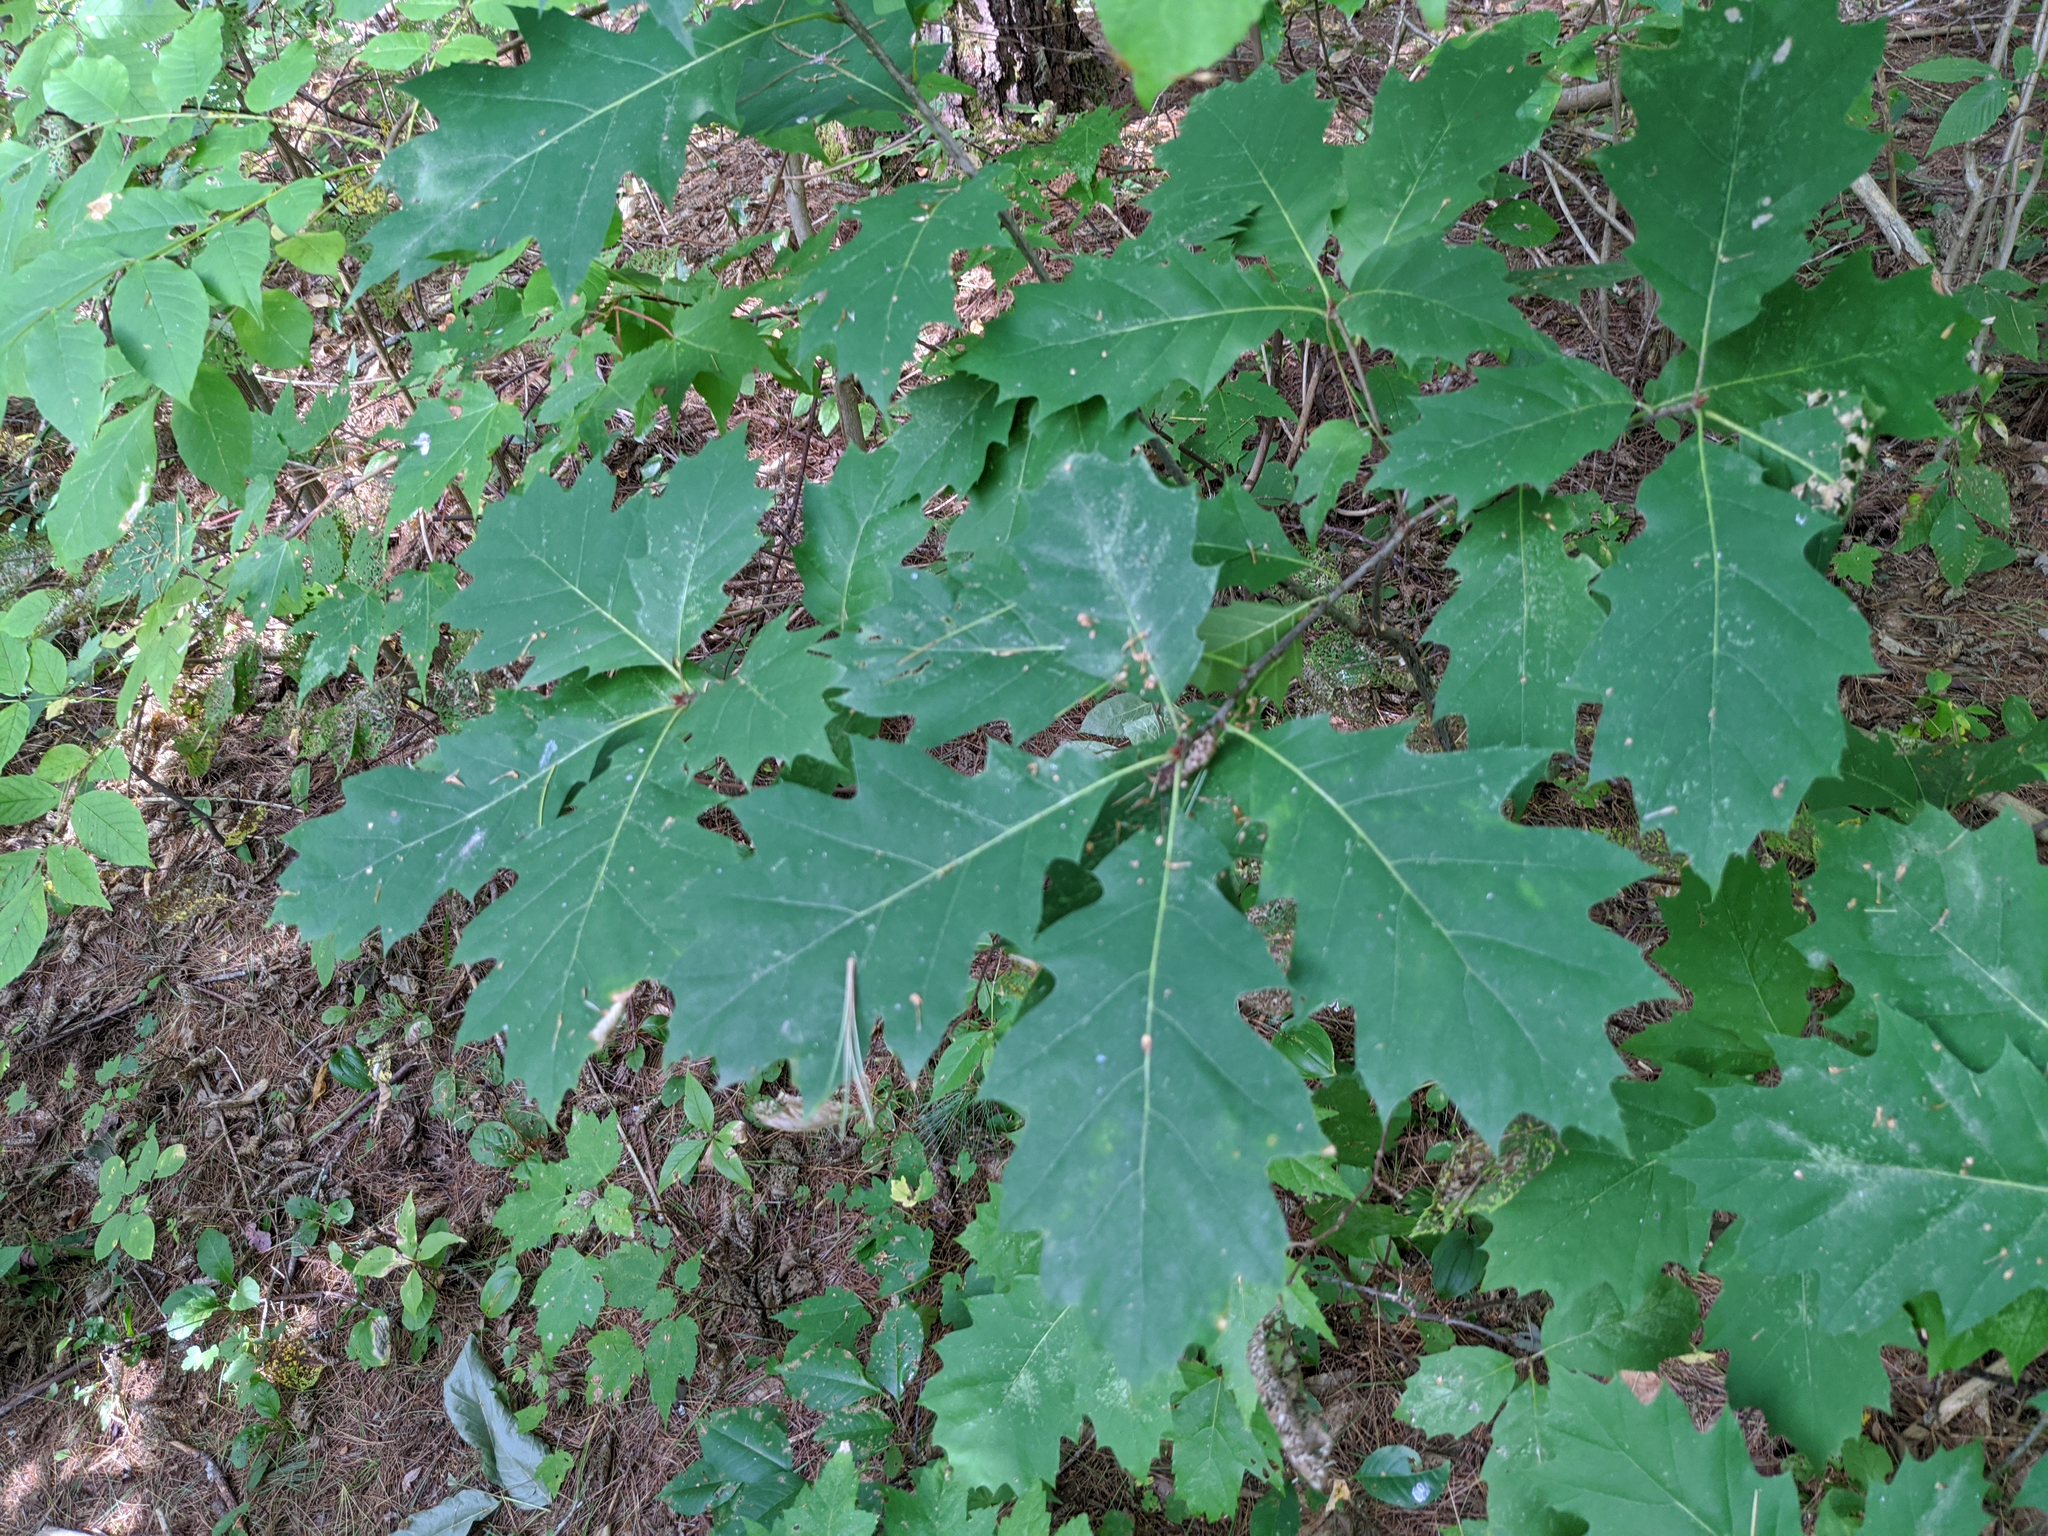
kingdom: Plantae
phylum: Tracheophyta
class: Magnoliopsida
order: Fagales
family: Fagaceae
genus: Quercus
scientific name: Quercus rubra
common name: Red oak
